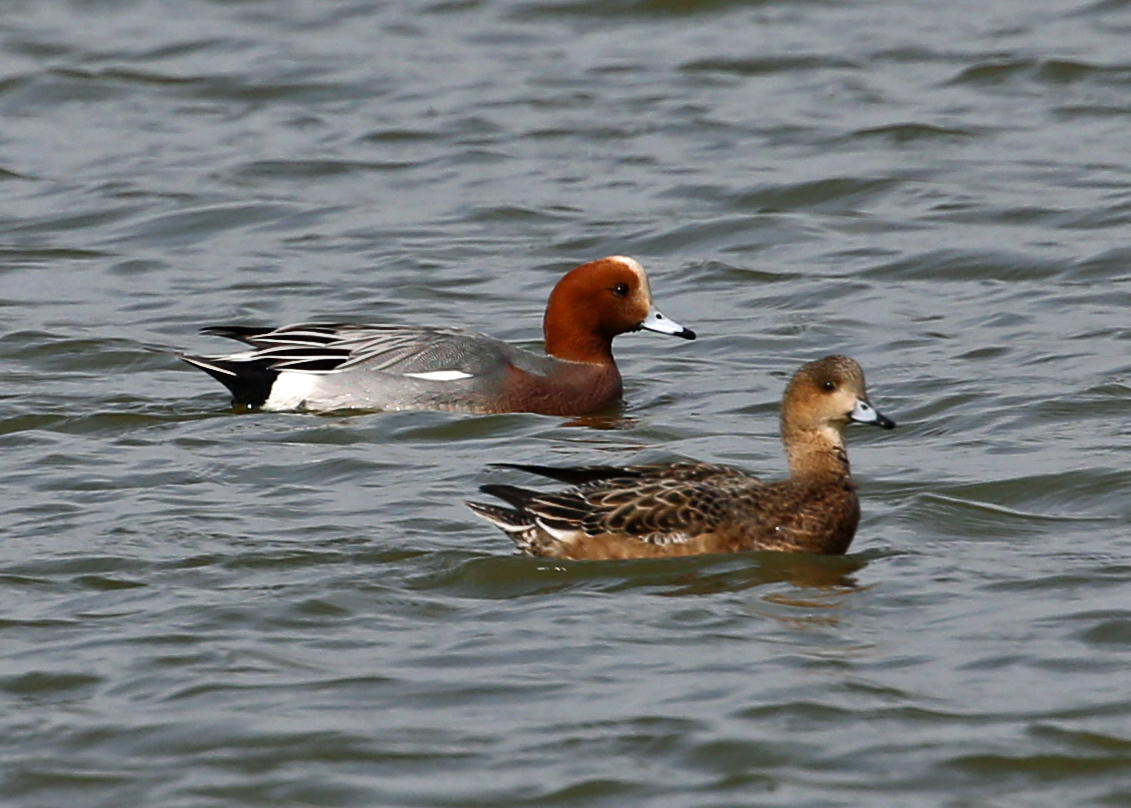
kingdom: Animalia
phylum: Chordata
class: Aves
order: Anseriformes
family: Anatidae
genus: Mareca
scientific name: Mareca penelope
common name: Eurasian wigeon
